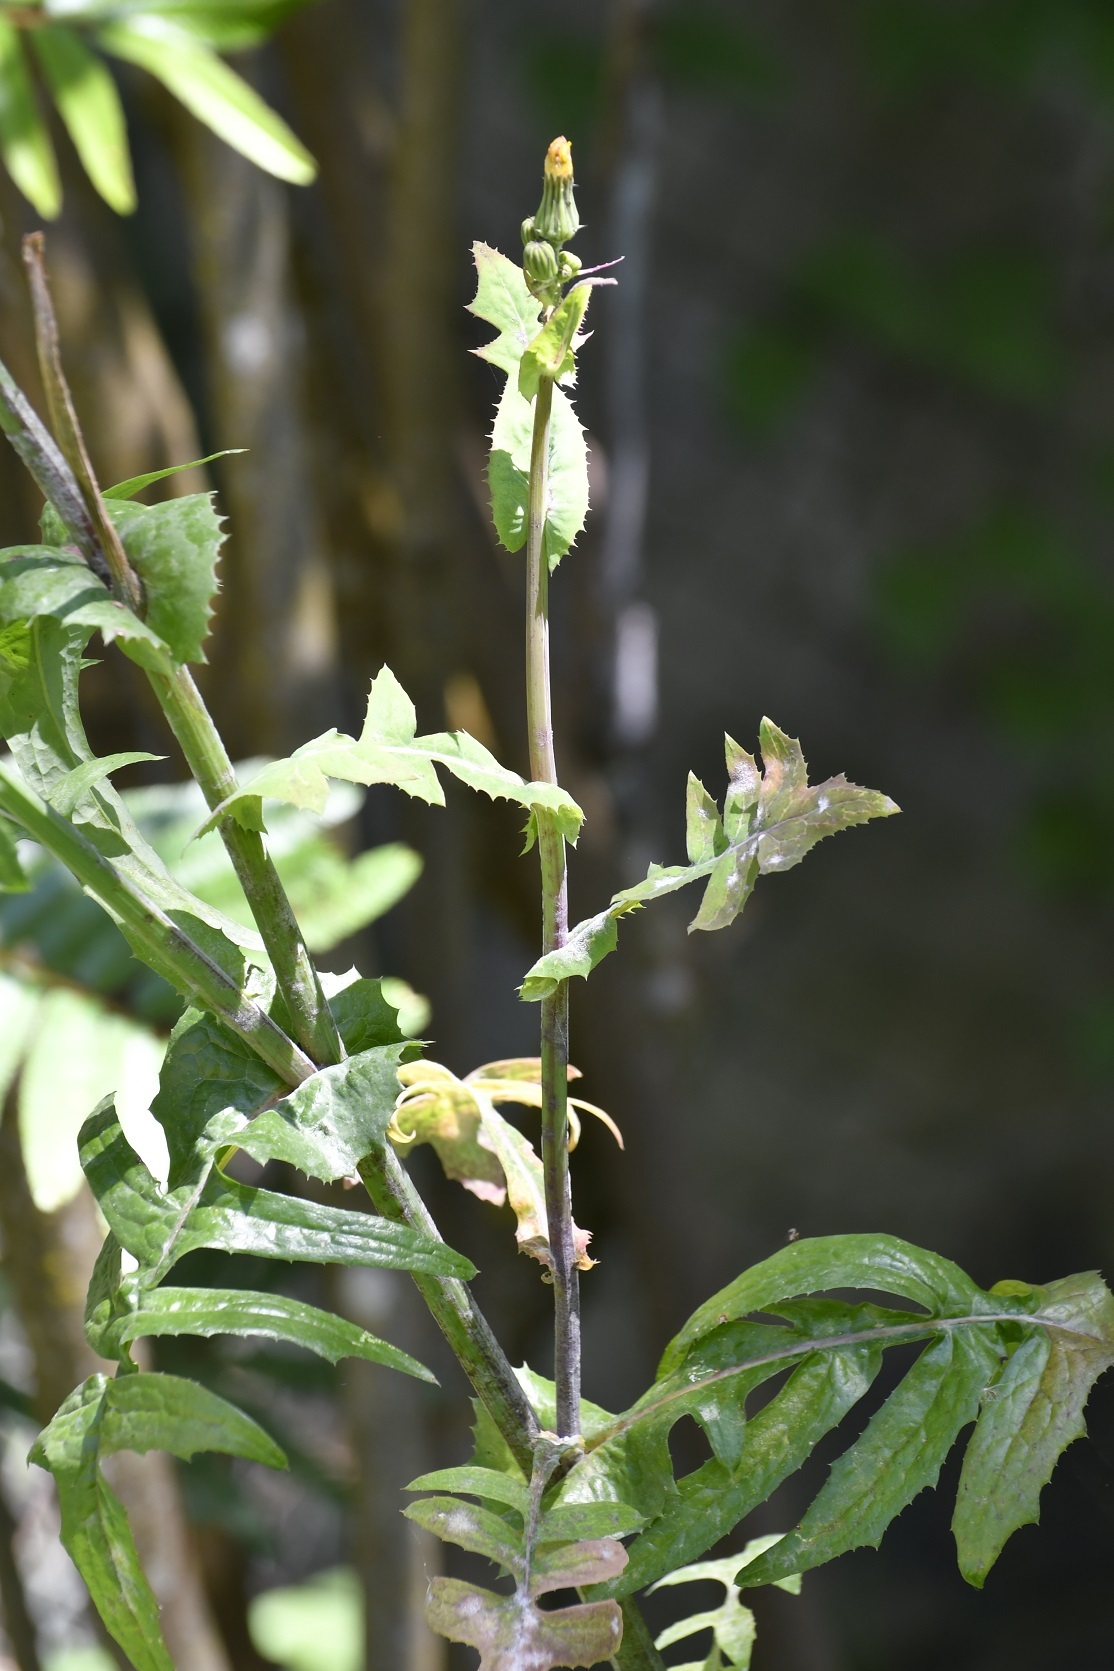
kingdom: Plantae
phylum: Tracheophyta
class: Magnoliopsida
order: Asterales
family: Asteraceae
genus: Sonchus
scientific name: Sonchus oleraceus
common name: Common sowthistle
